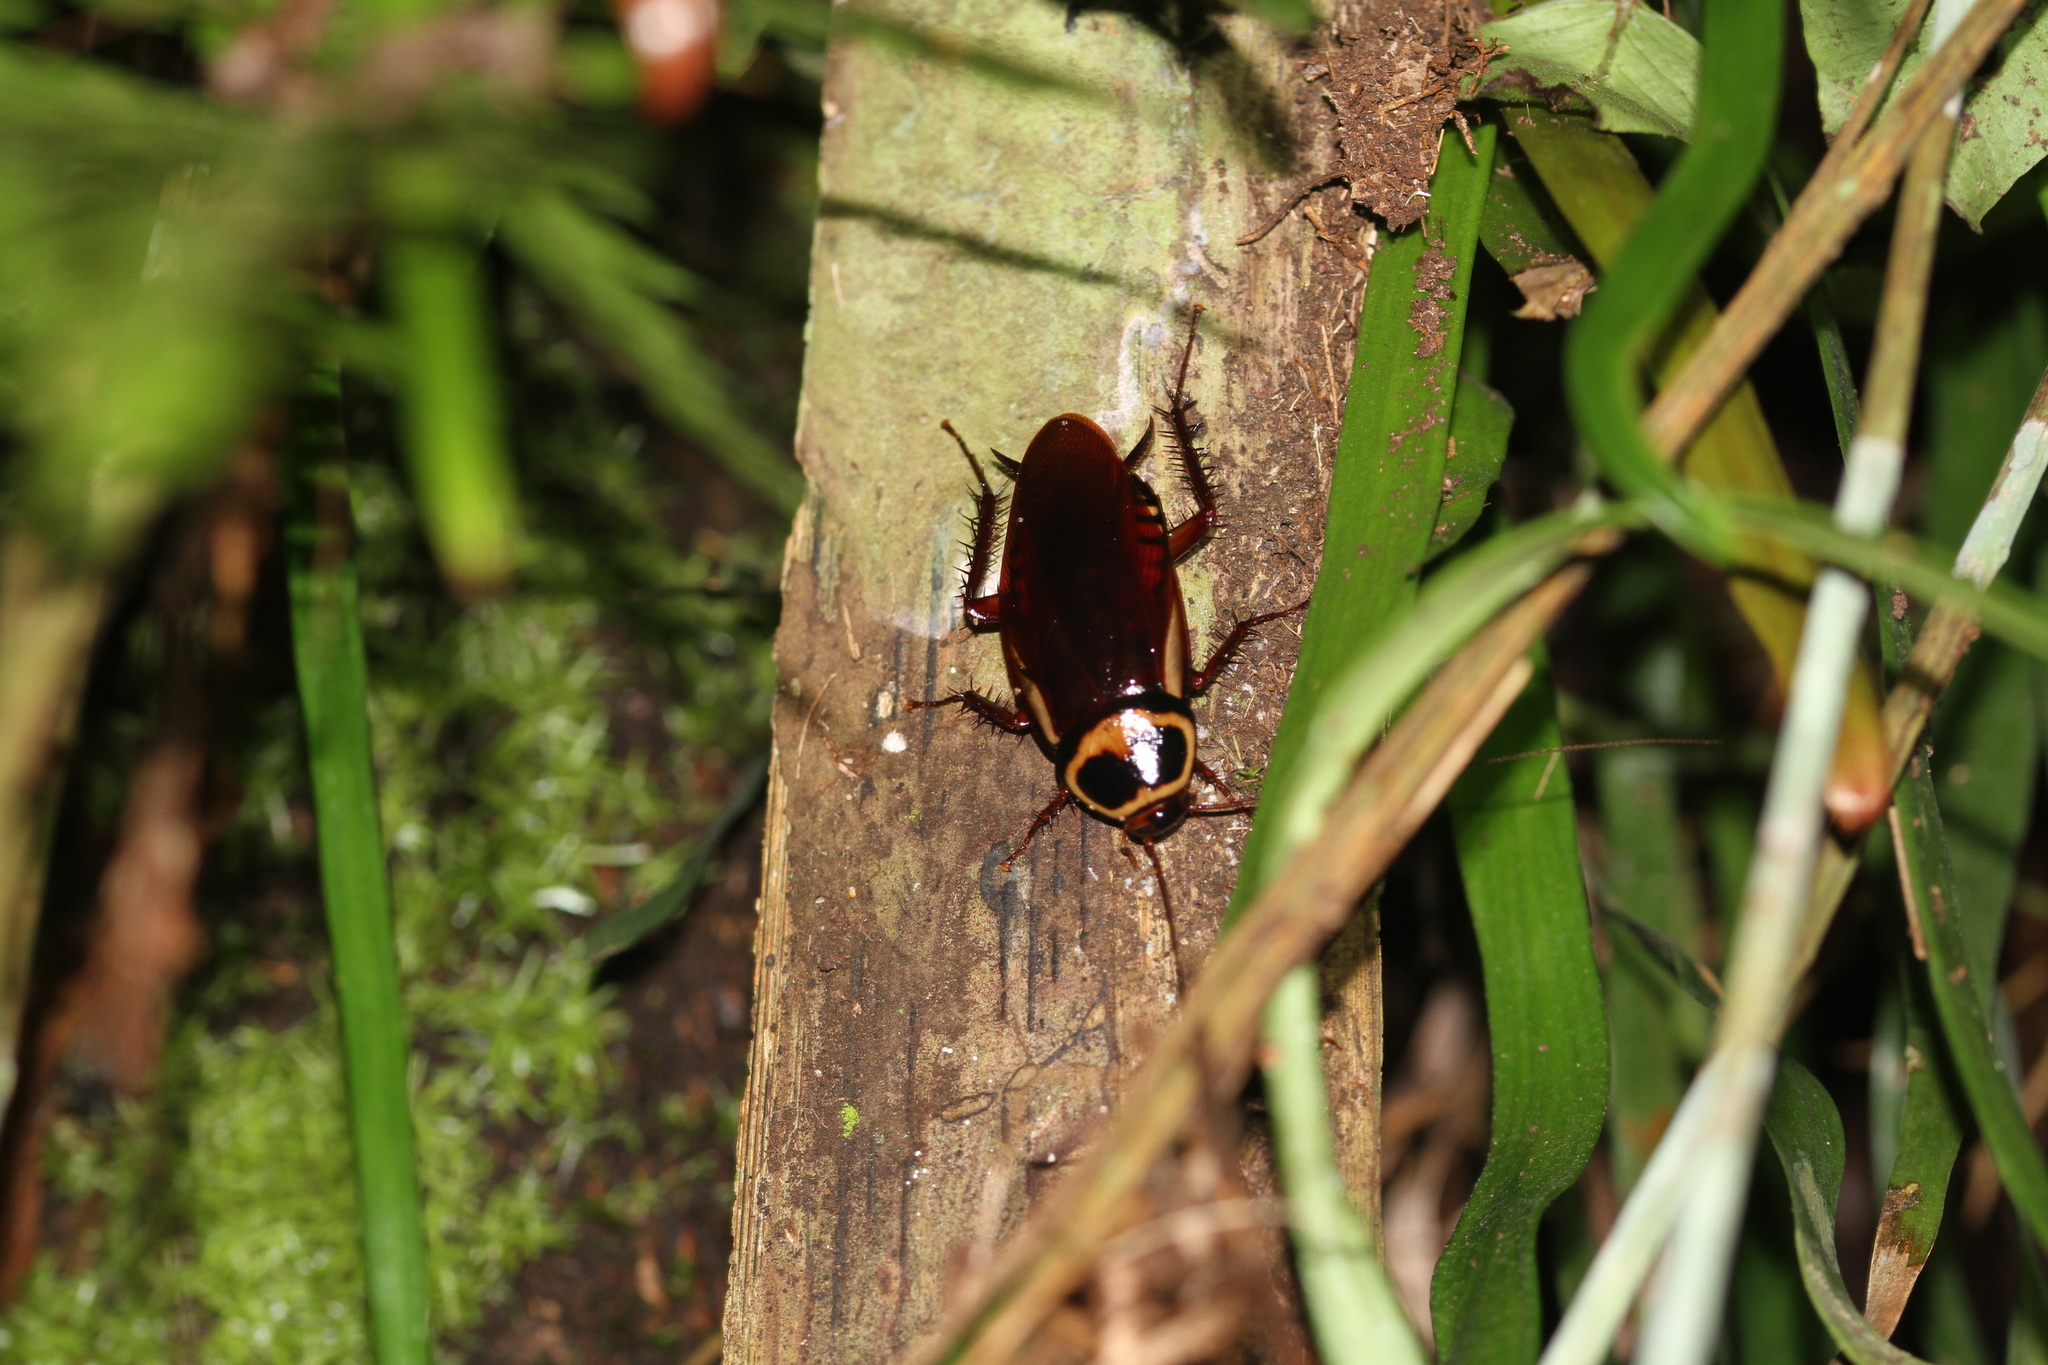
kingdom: Animalia
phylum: Arthropoda
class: Insecta
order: Blattodea
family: Blattidae
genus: Periplaneta
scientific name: Periplaneta australasiae
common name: Australian cockroach
